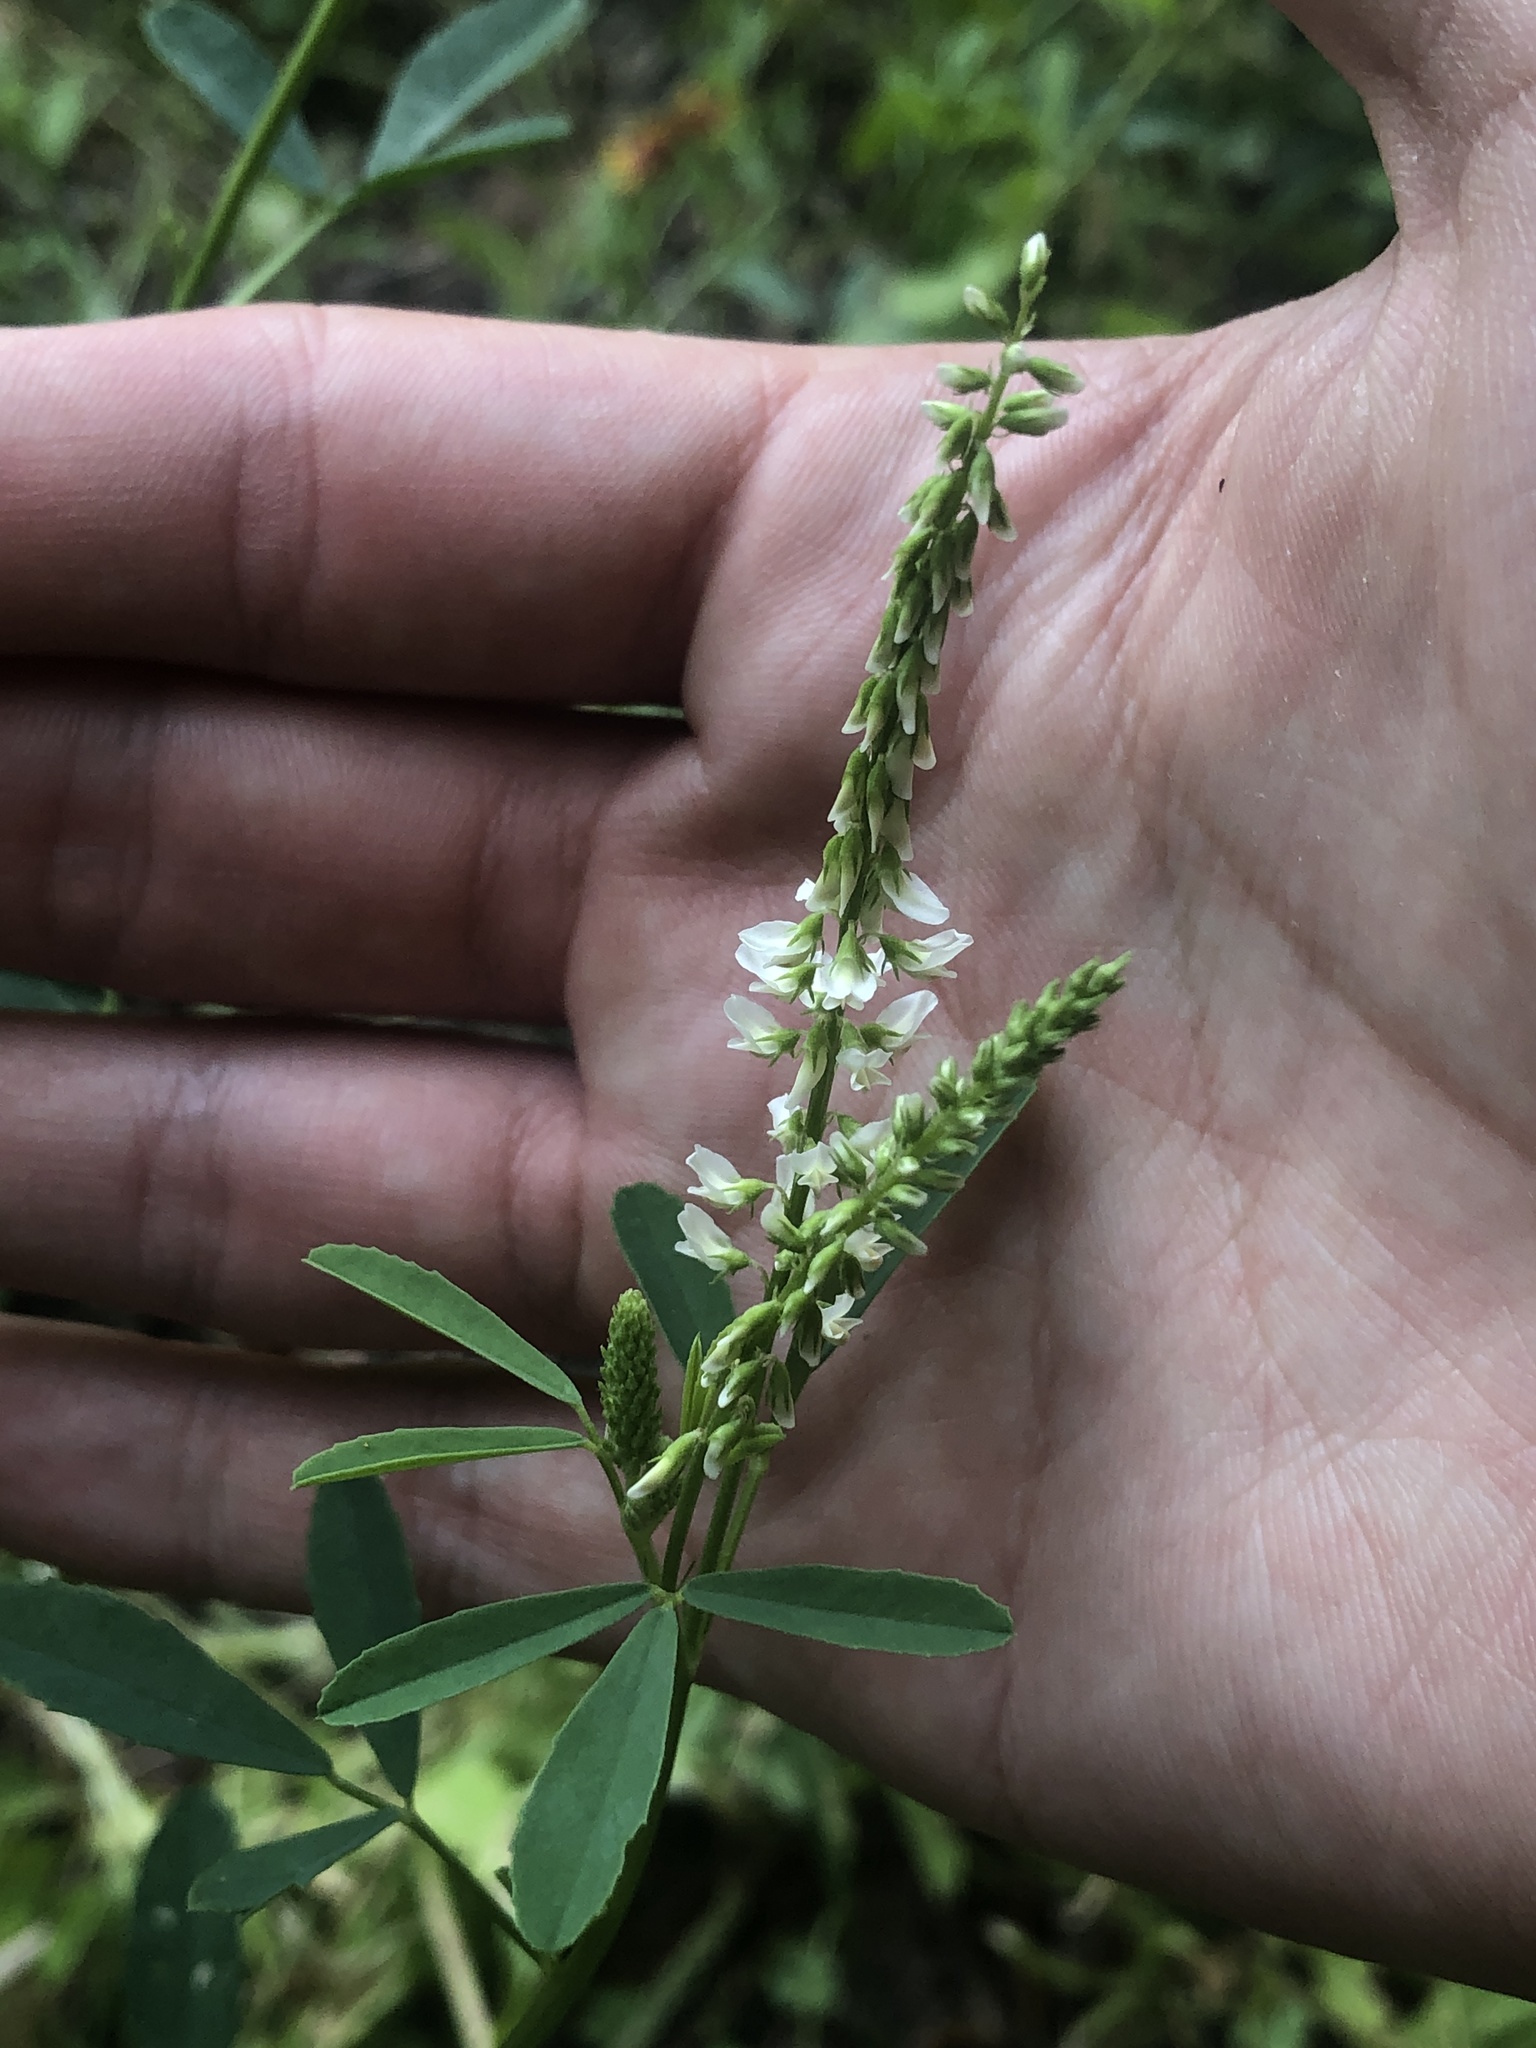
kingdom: Plantae
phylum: Tracheophyta
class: Magnoliopsida
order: Fabales
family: Fabaceae
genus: Melilotus
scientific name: Melilotus albus
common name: White melilot
